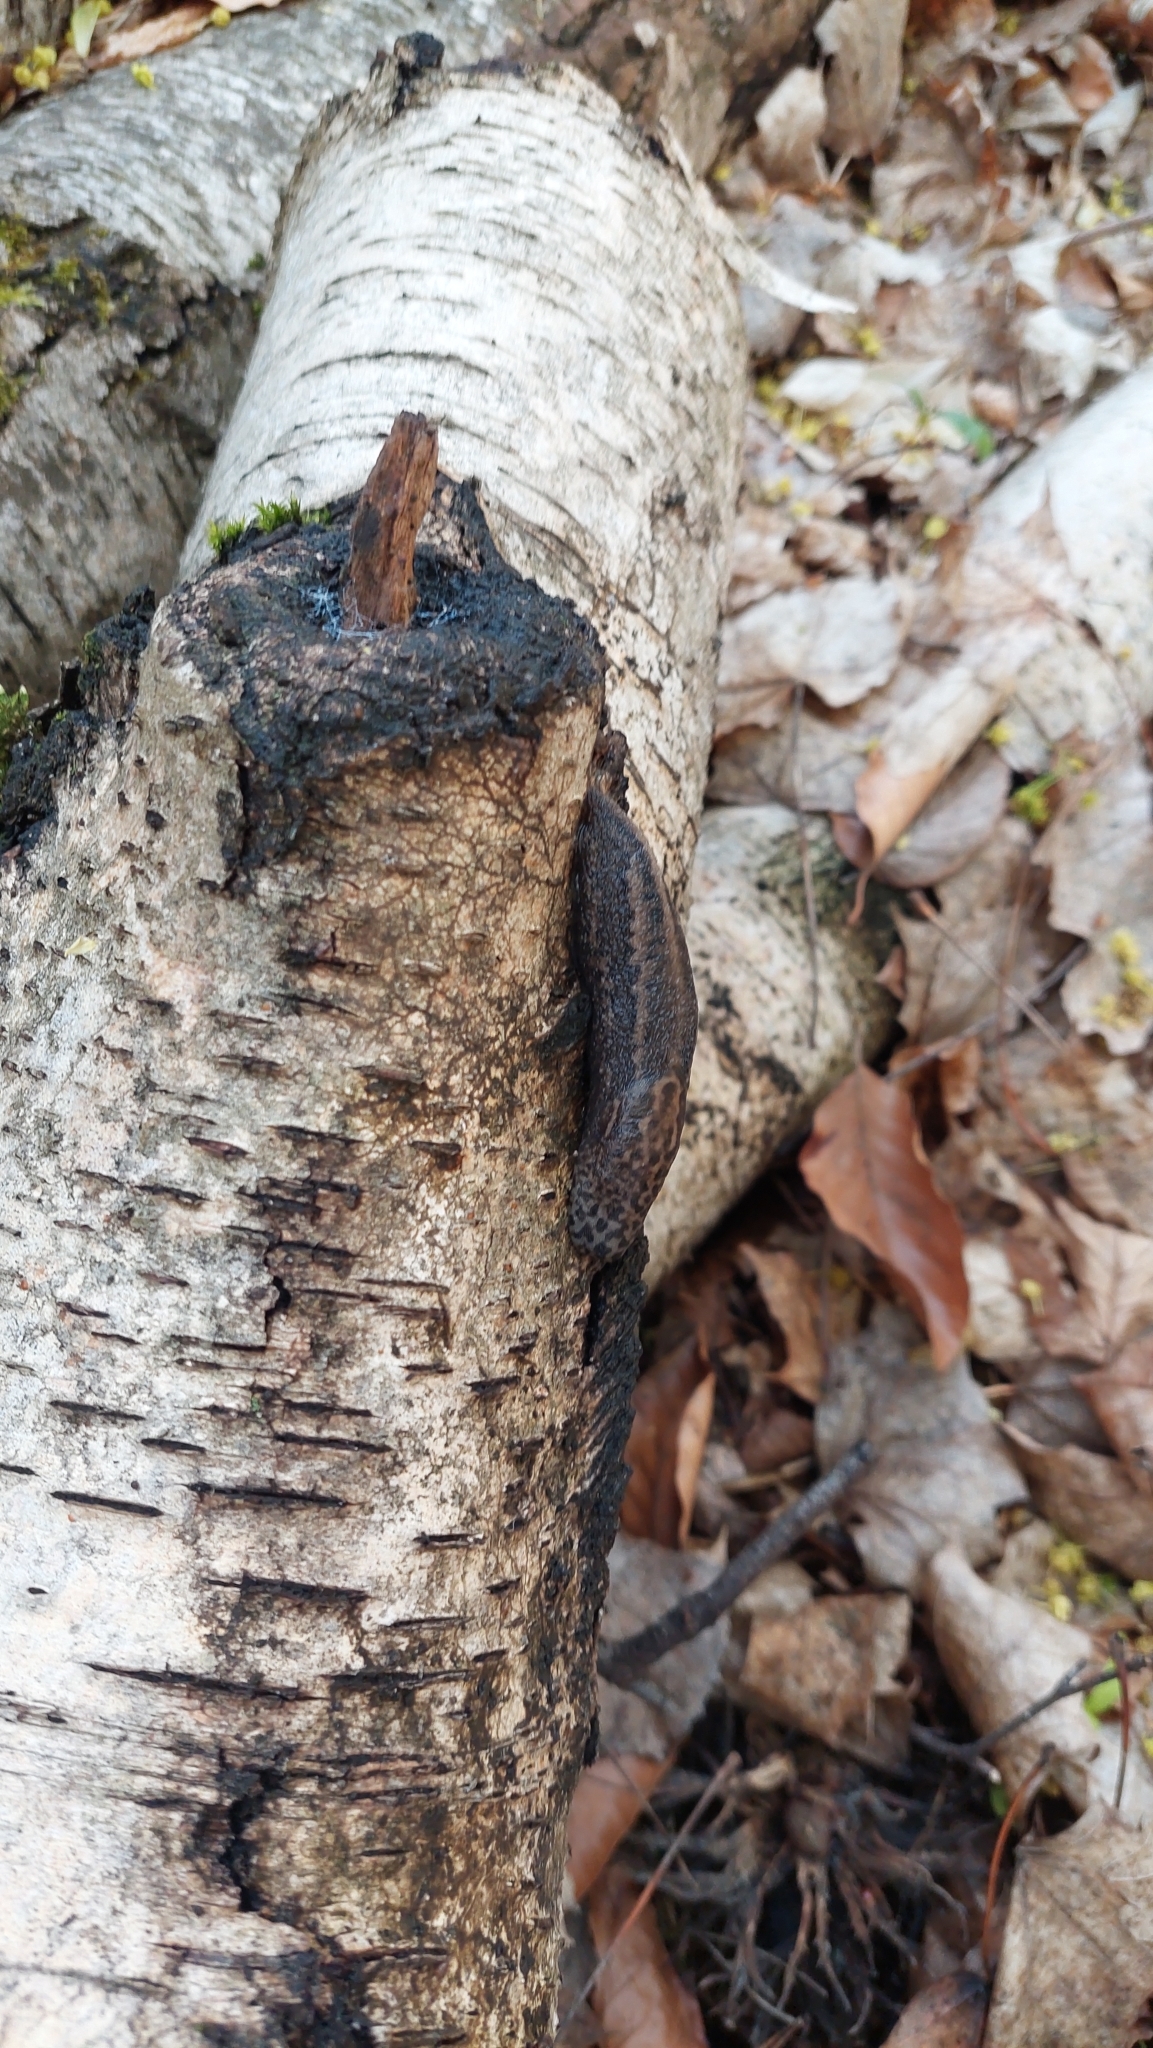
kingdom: Animalia
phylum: Mollusca
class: Gastropoda
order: Stylommatophora
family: Limacidae
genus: Limax
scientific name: Limax maximus
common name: Great grey slug
